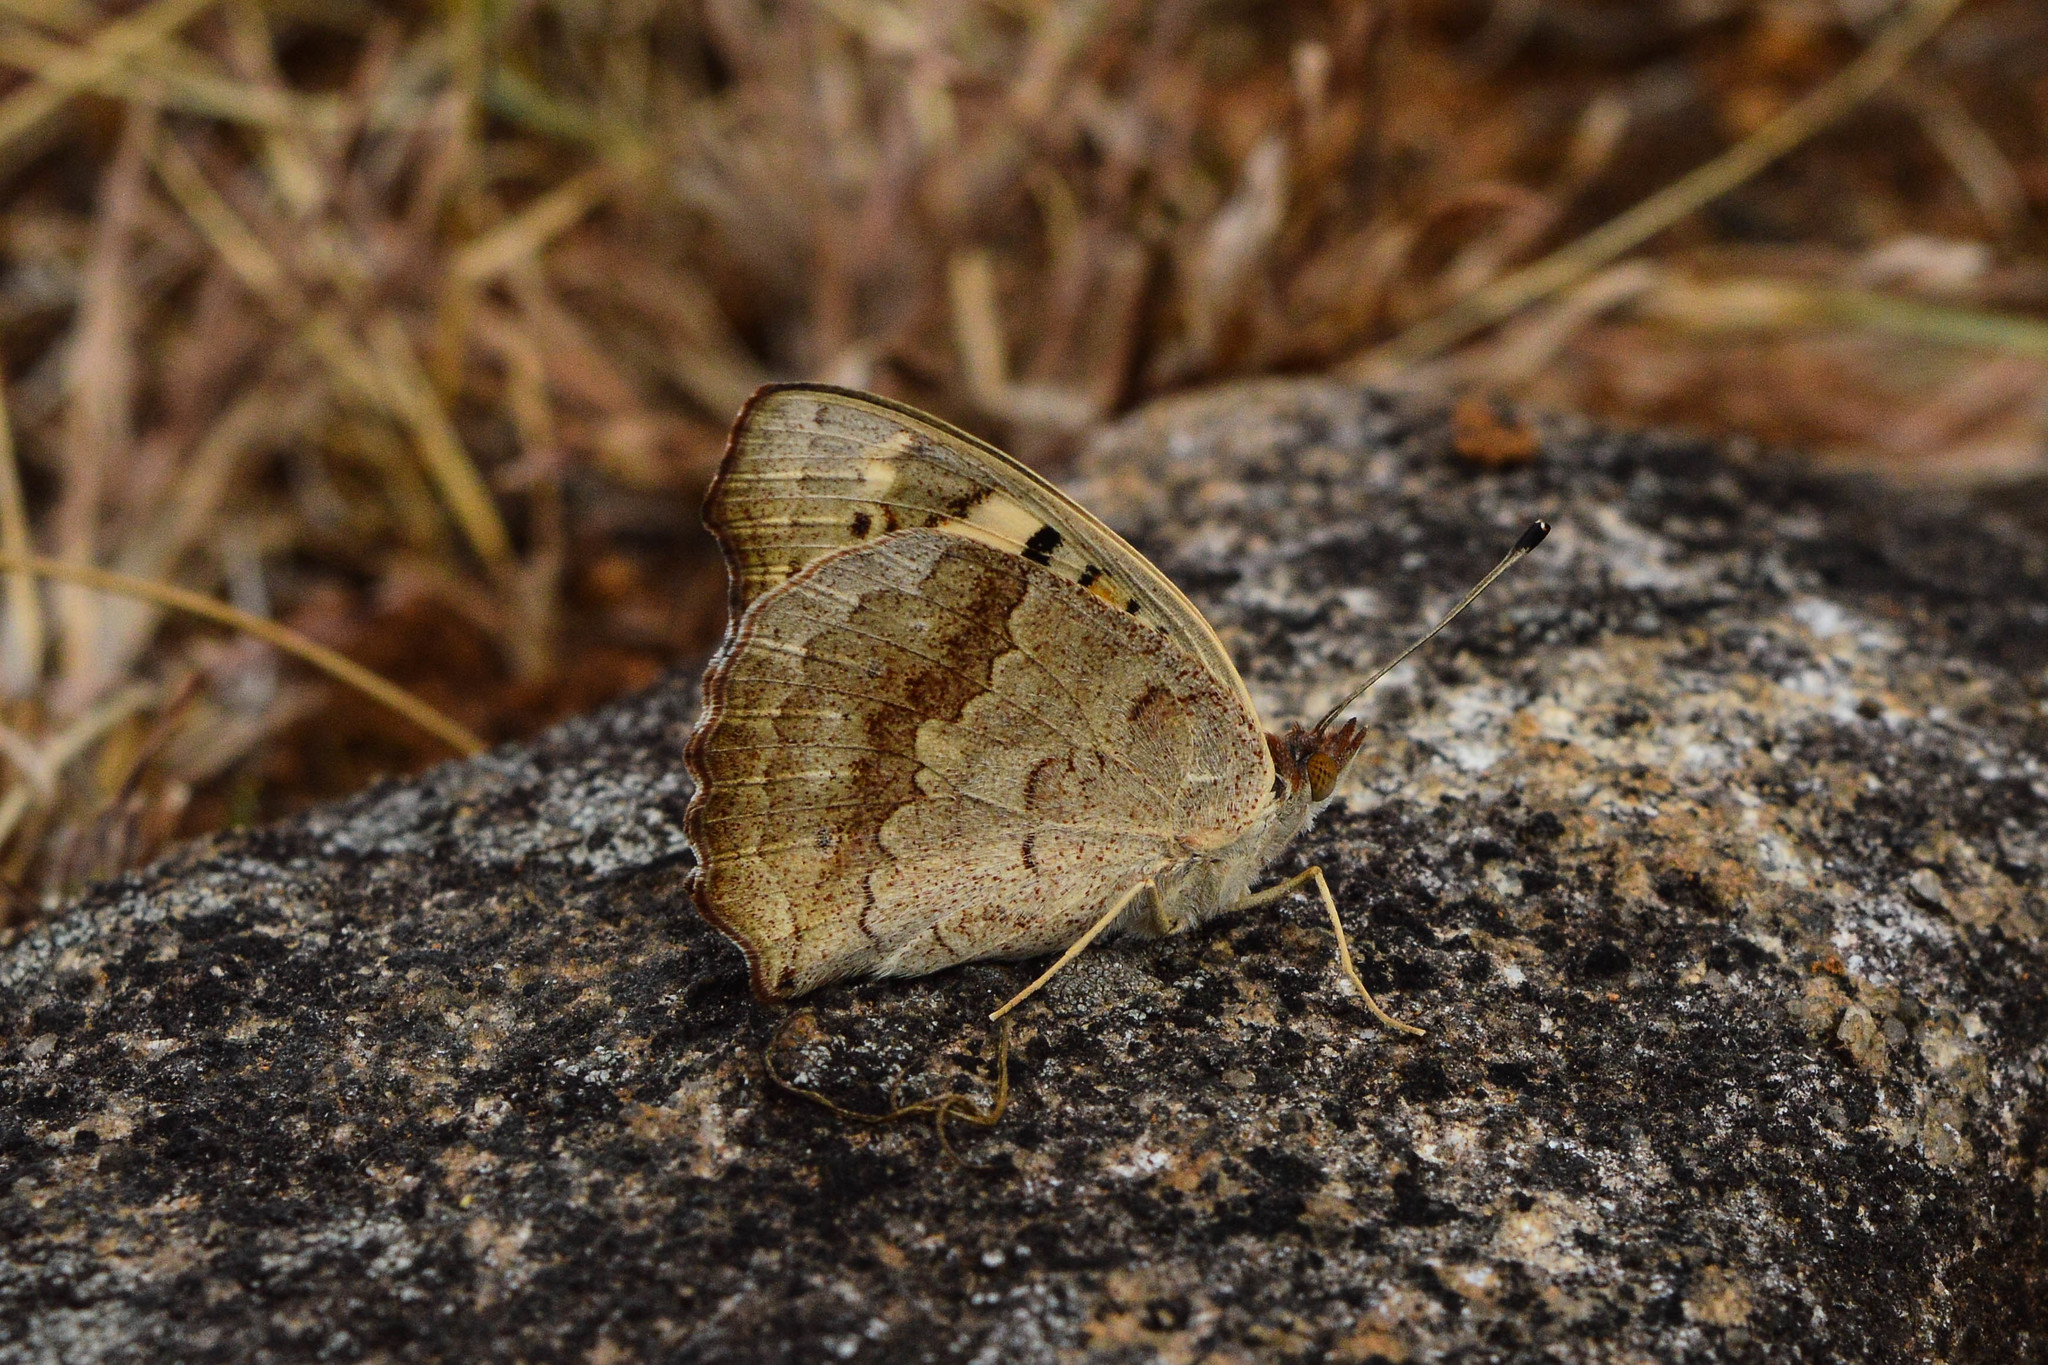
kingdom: Animalia
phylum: Arthropoda
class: Insecta
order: Lepidoptera
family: Nymphalidae
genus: Junonia
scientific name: Junonia orithya
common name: Blue pansy
